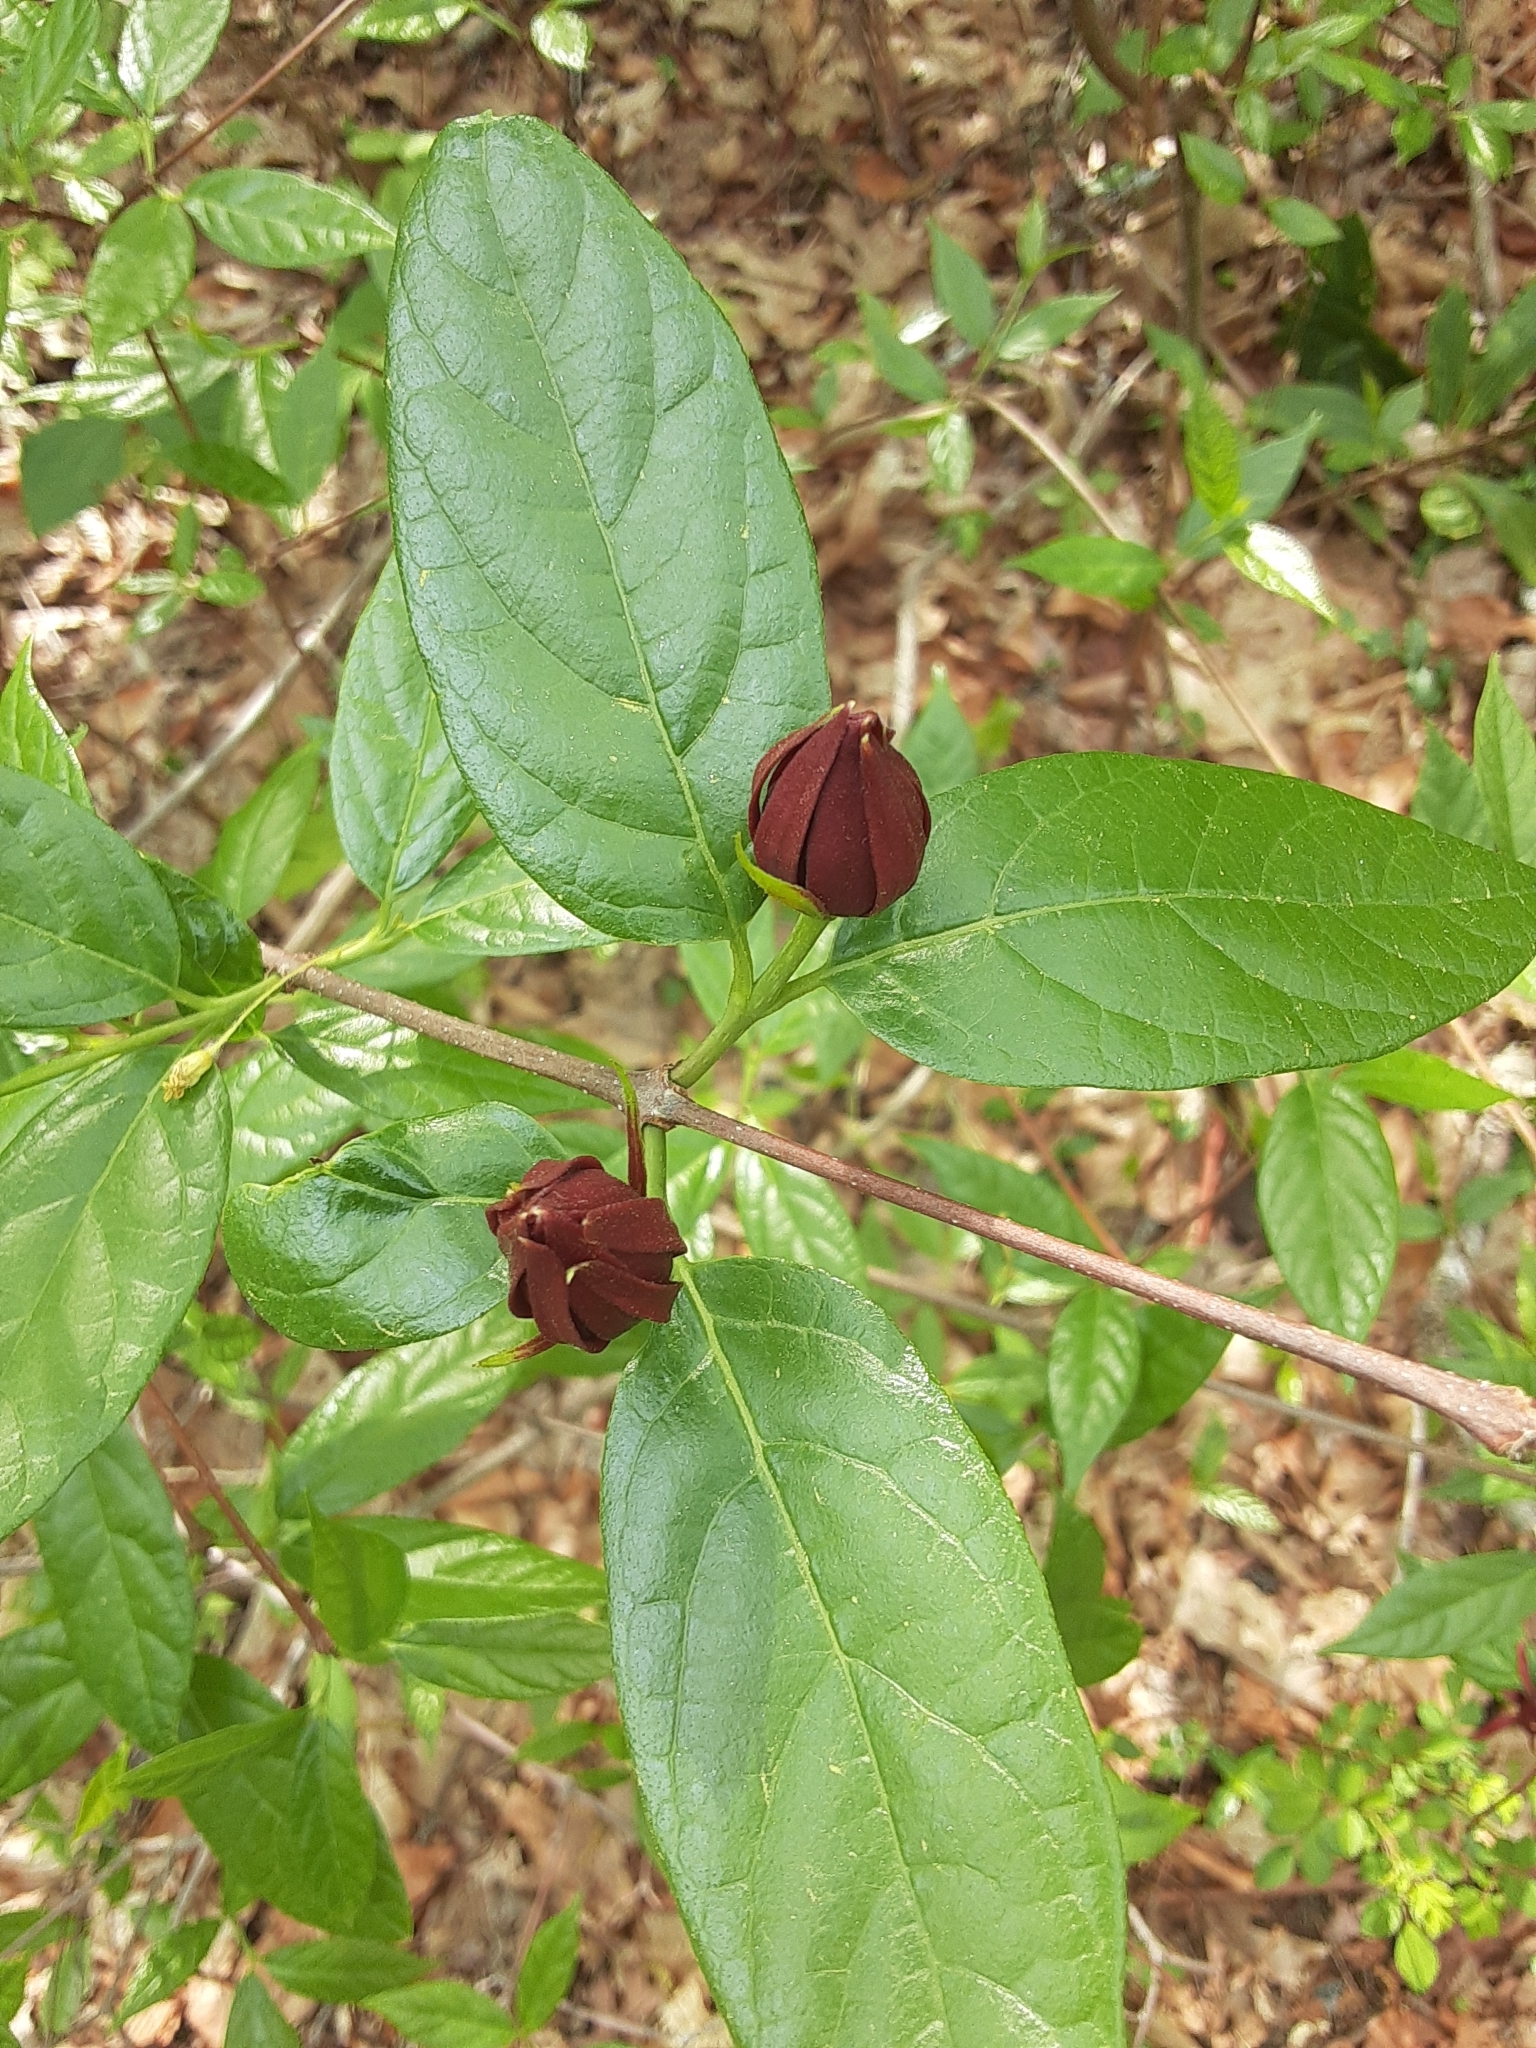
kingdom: Plantae
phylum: Tracheophyta
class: Magnoliopsida
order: Laurales
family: Calycanthaceae
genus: Calycanthus
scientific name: Calycanthus floridus
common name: Carolina-allspice
